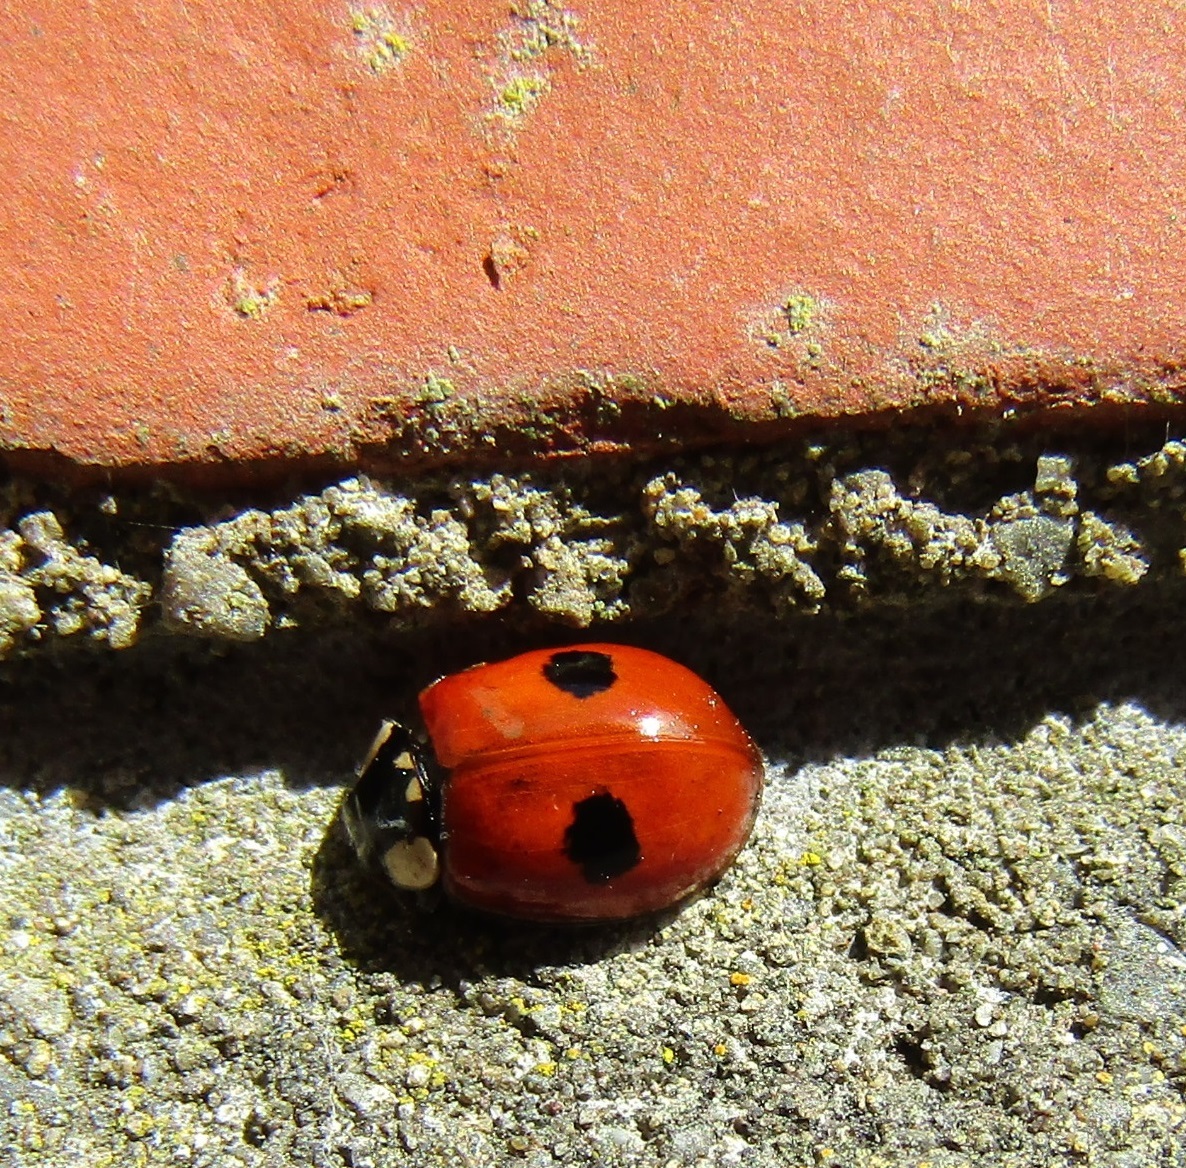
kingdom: Animalia
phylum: Arthropoda
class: Insecta
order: Coleoptera
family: Coccinellidae
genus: Adalia
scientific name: Adalia bipunctata
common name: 2-spot ladybird
